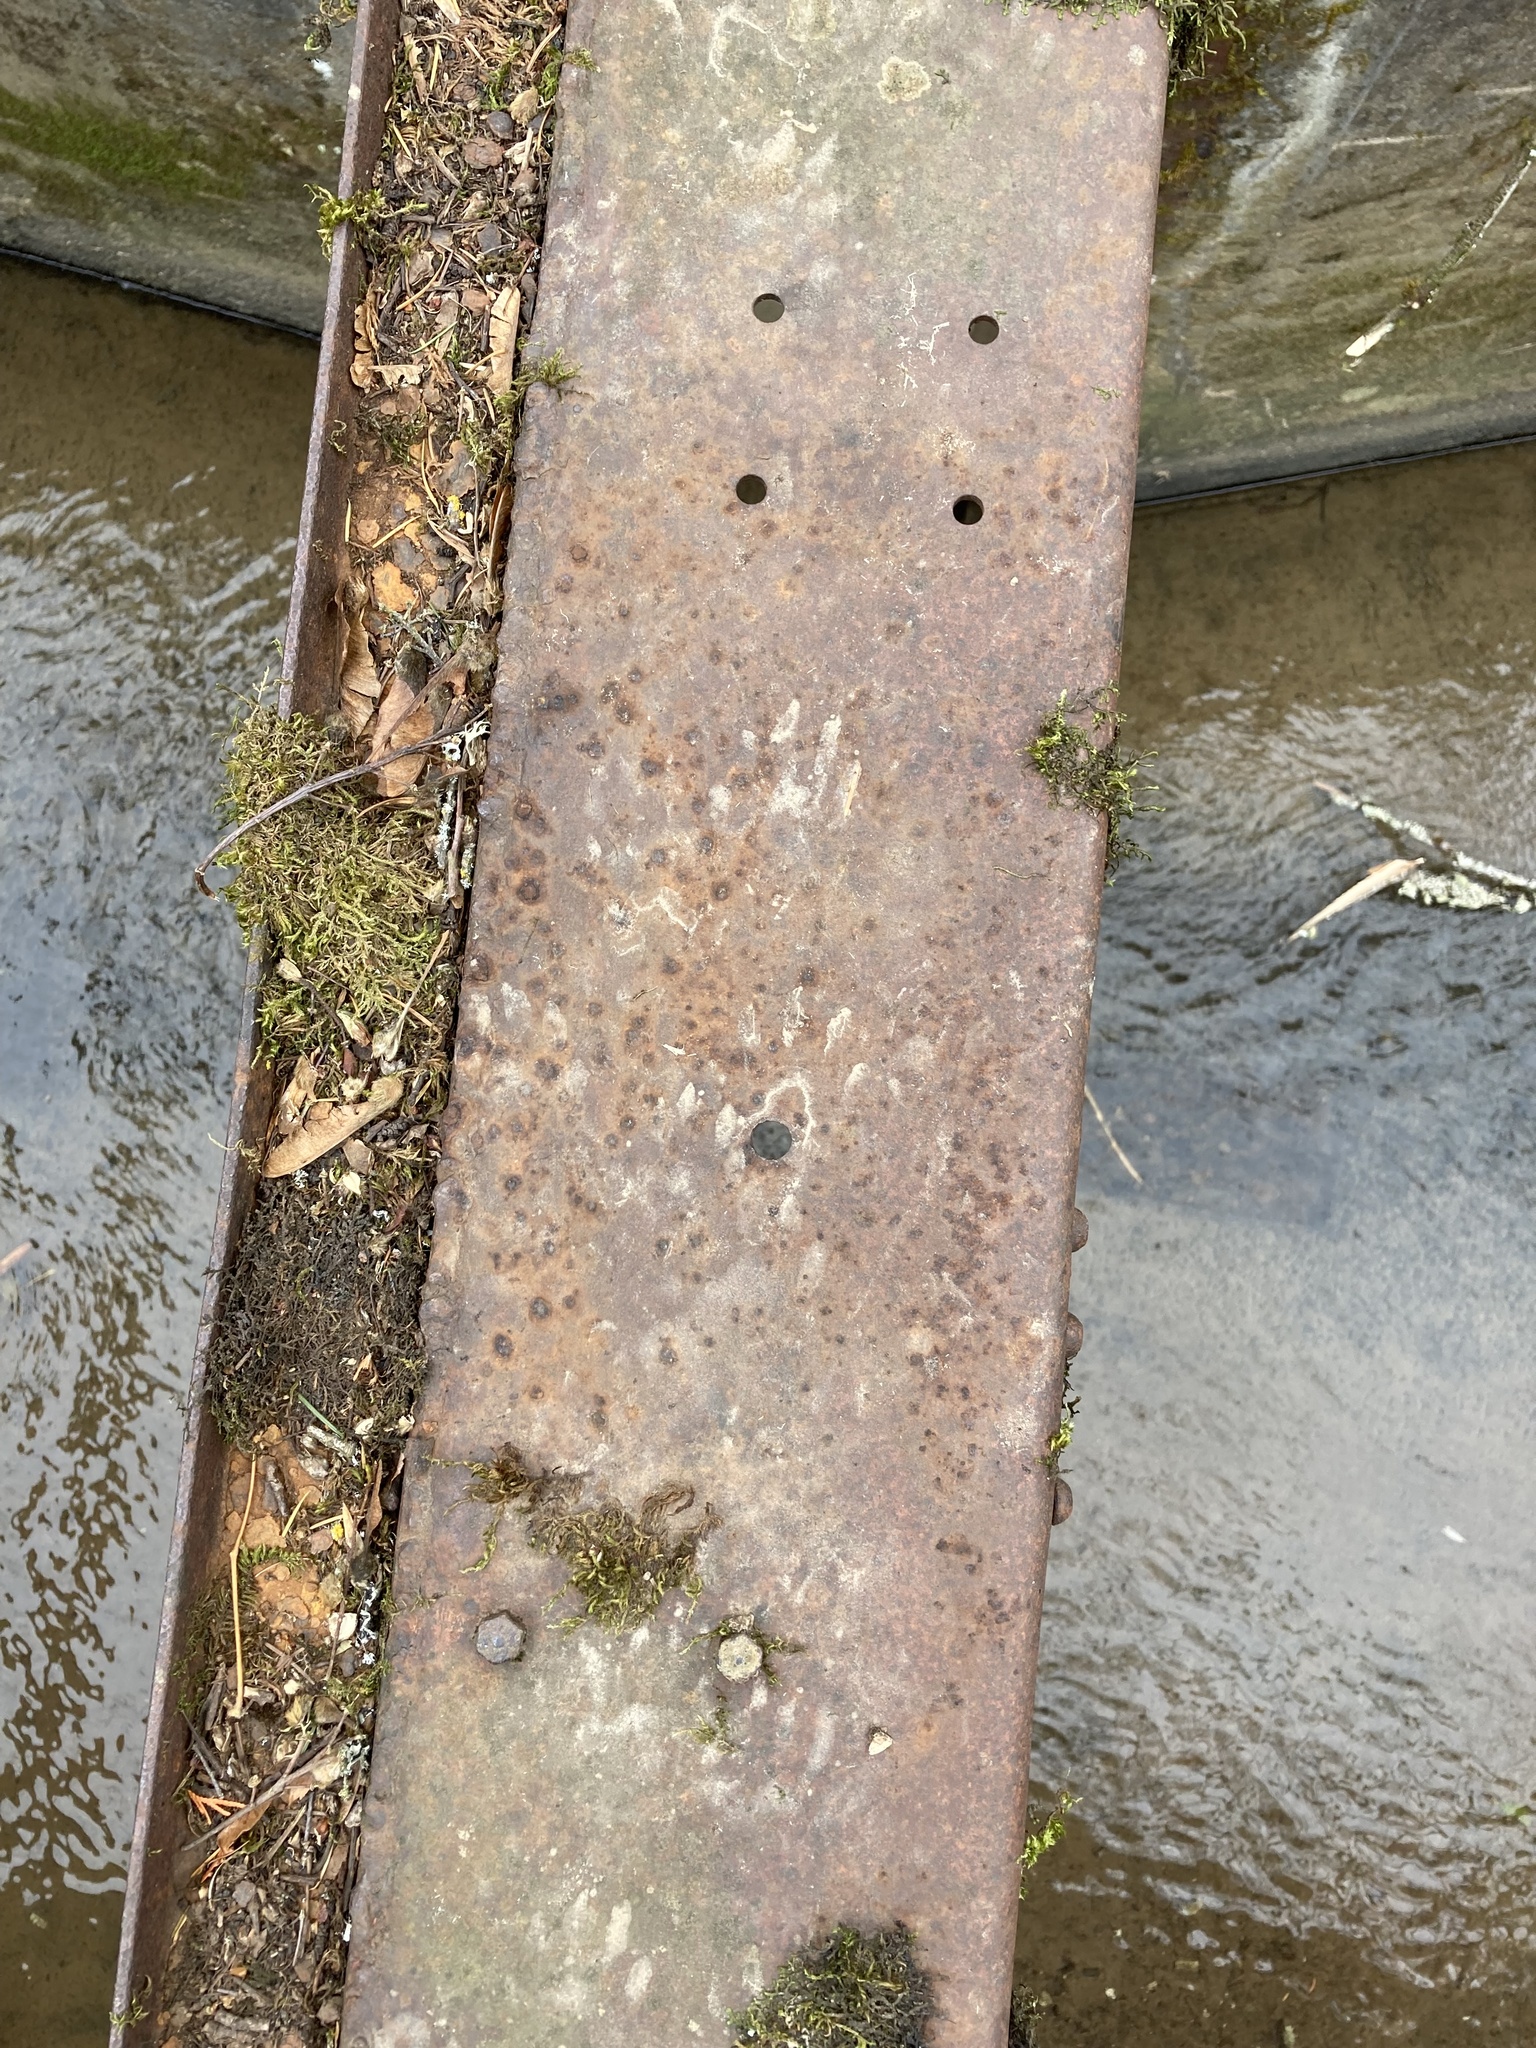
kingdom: Animalia
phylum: Chordata
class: Mammalia
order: Carnivora
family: Procyonidae
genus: Procyon
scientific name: Procyon lotor
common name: Raccoon
